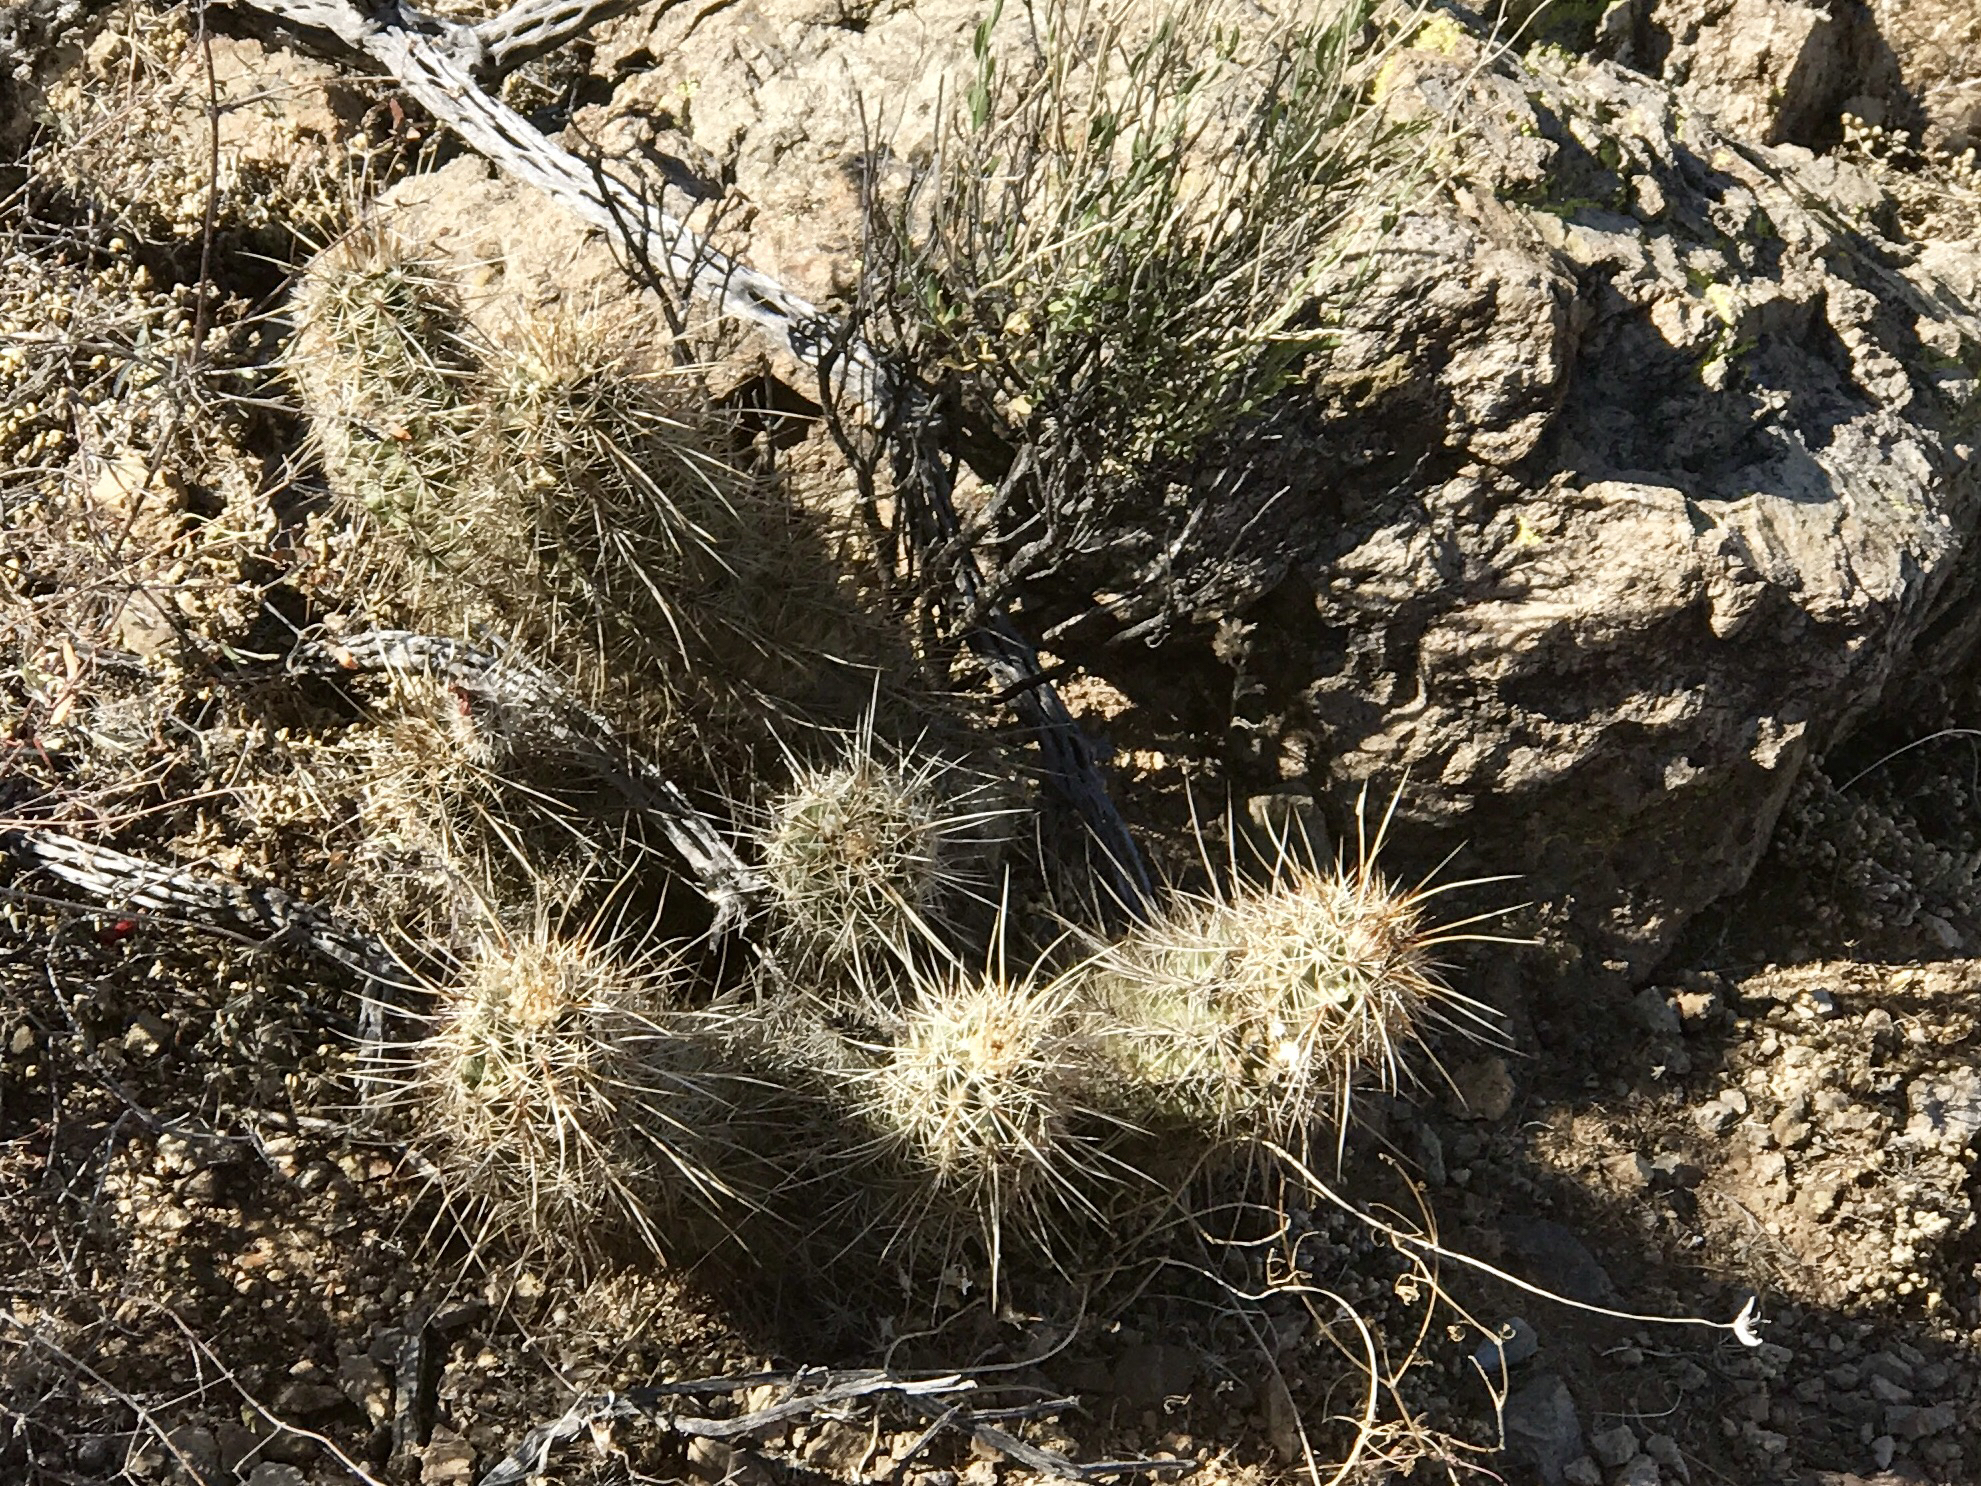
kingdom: Plantae
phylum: Tracheophyta
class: Magnoliopsida
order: Caryophyllales
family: Cactaceae
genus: Echinocereus
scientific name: Echinocereus fasciculatus
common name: Bundle hedgehog
